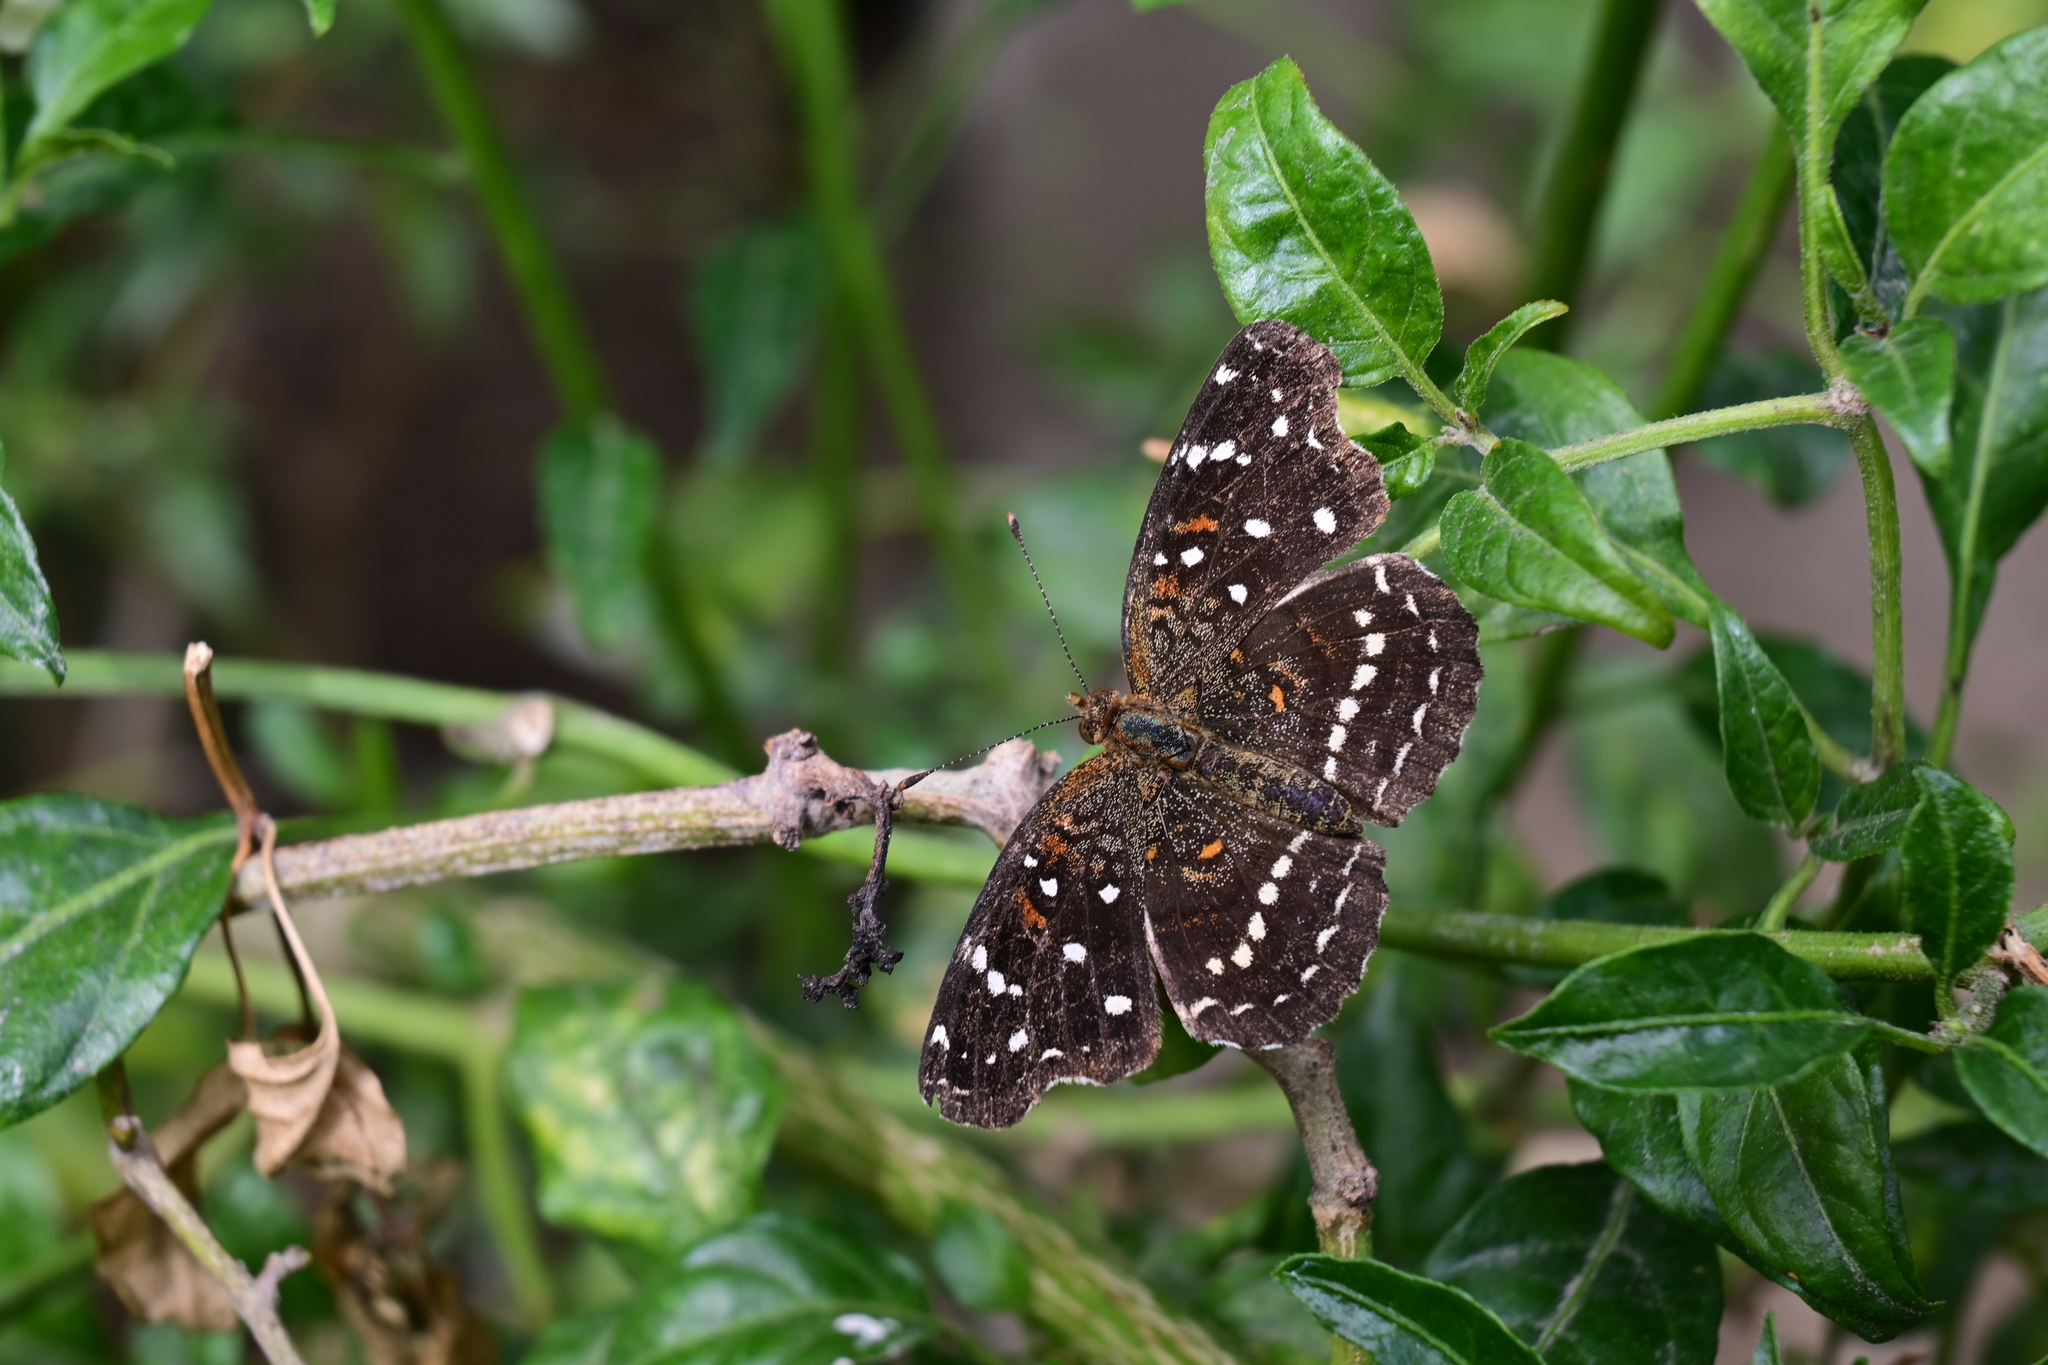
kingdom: Animalia
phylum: Arthropoda
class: Insecta
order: Lepidoptera
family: Nymphalidae
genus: Anthanassa
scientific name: Anthanassa texana
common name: Texan crescent
